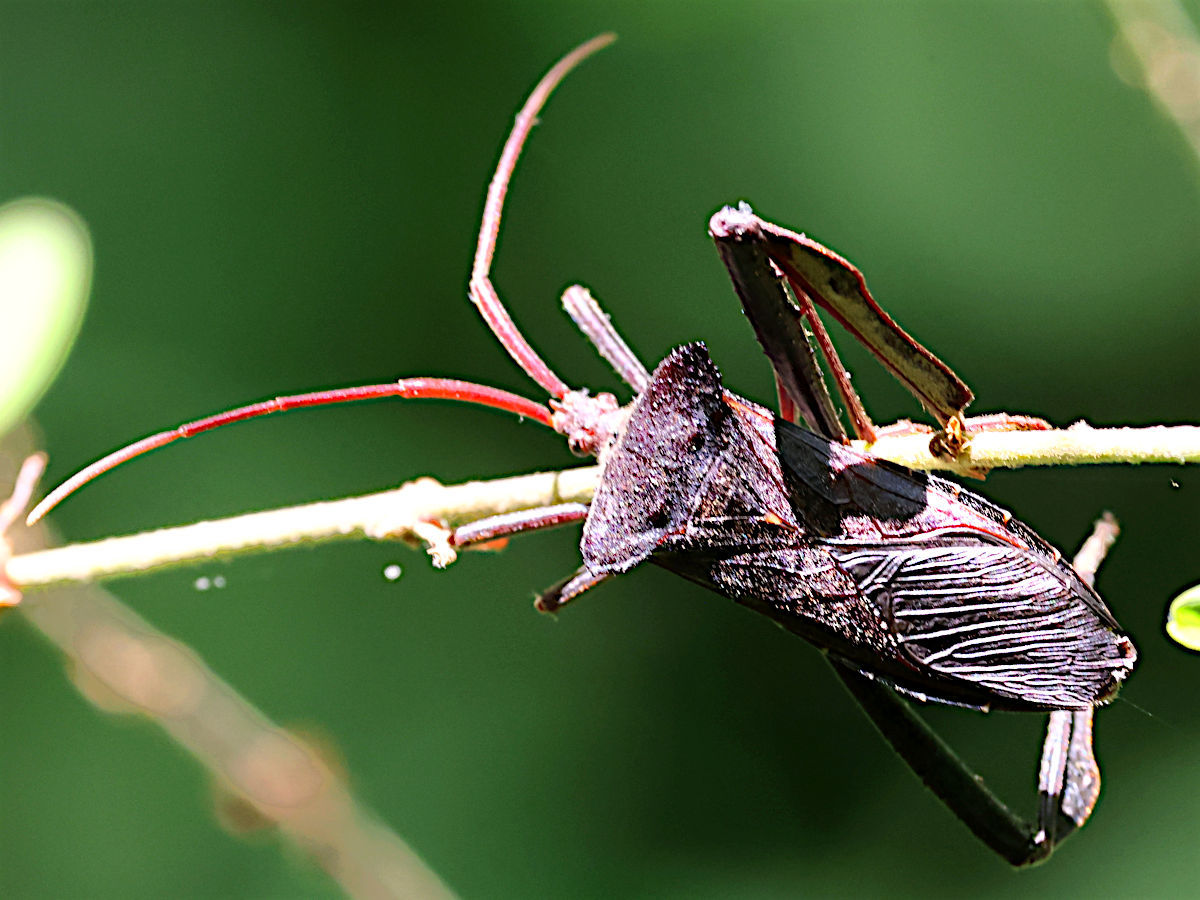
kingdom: Animalia
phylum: Arthropoda
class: Insecta
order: Hemiptera
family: Coreidae
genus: Acanthocephala
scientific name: Acanthocephala declivis
